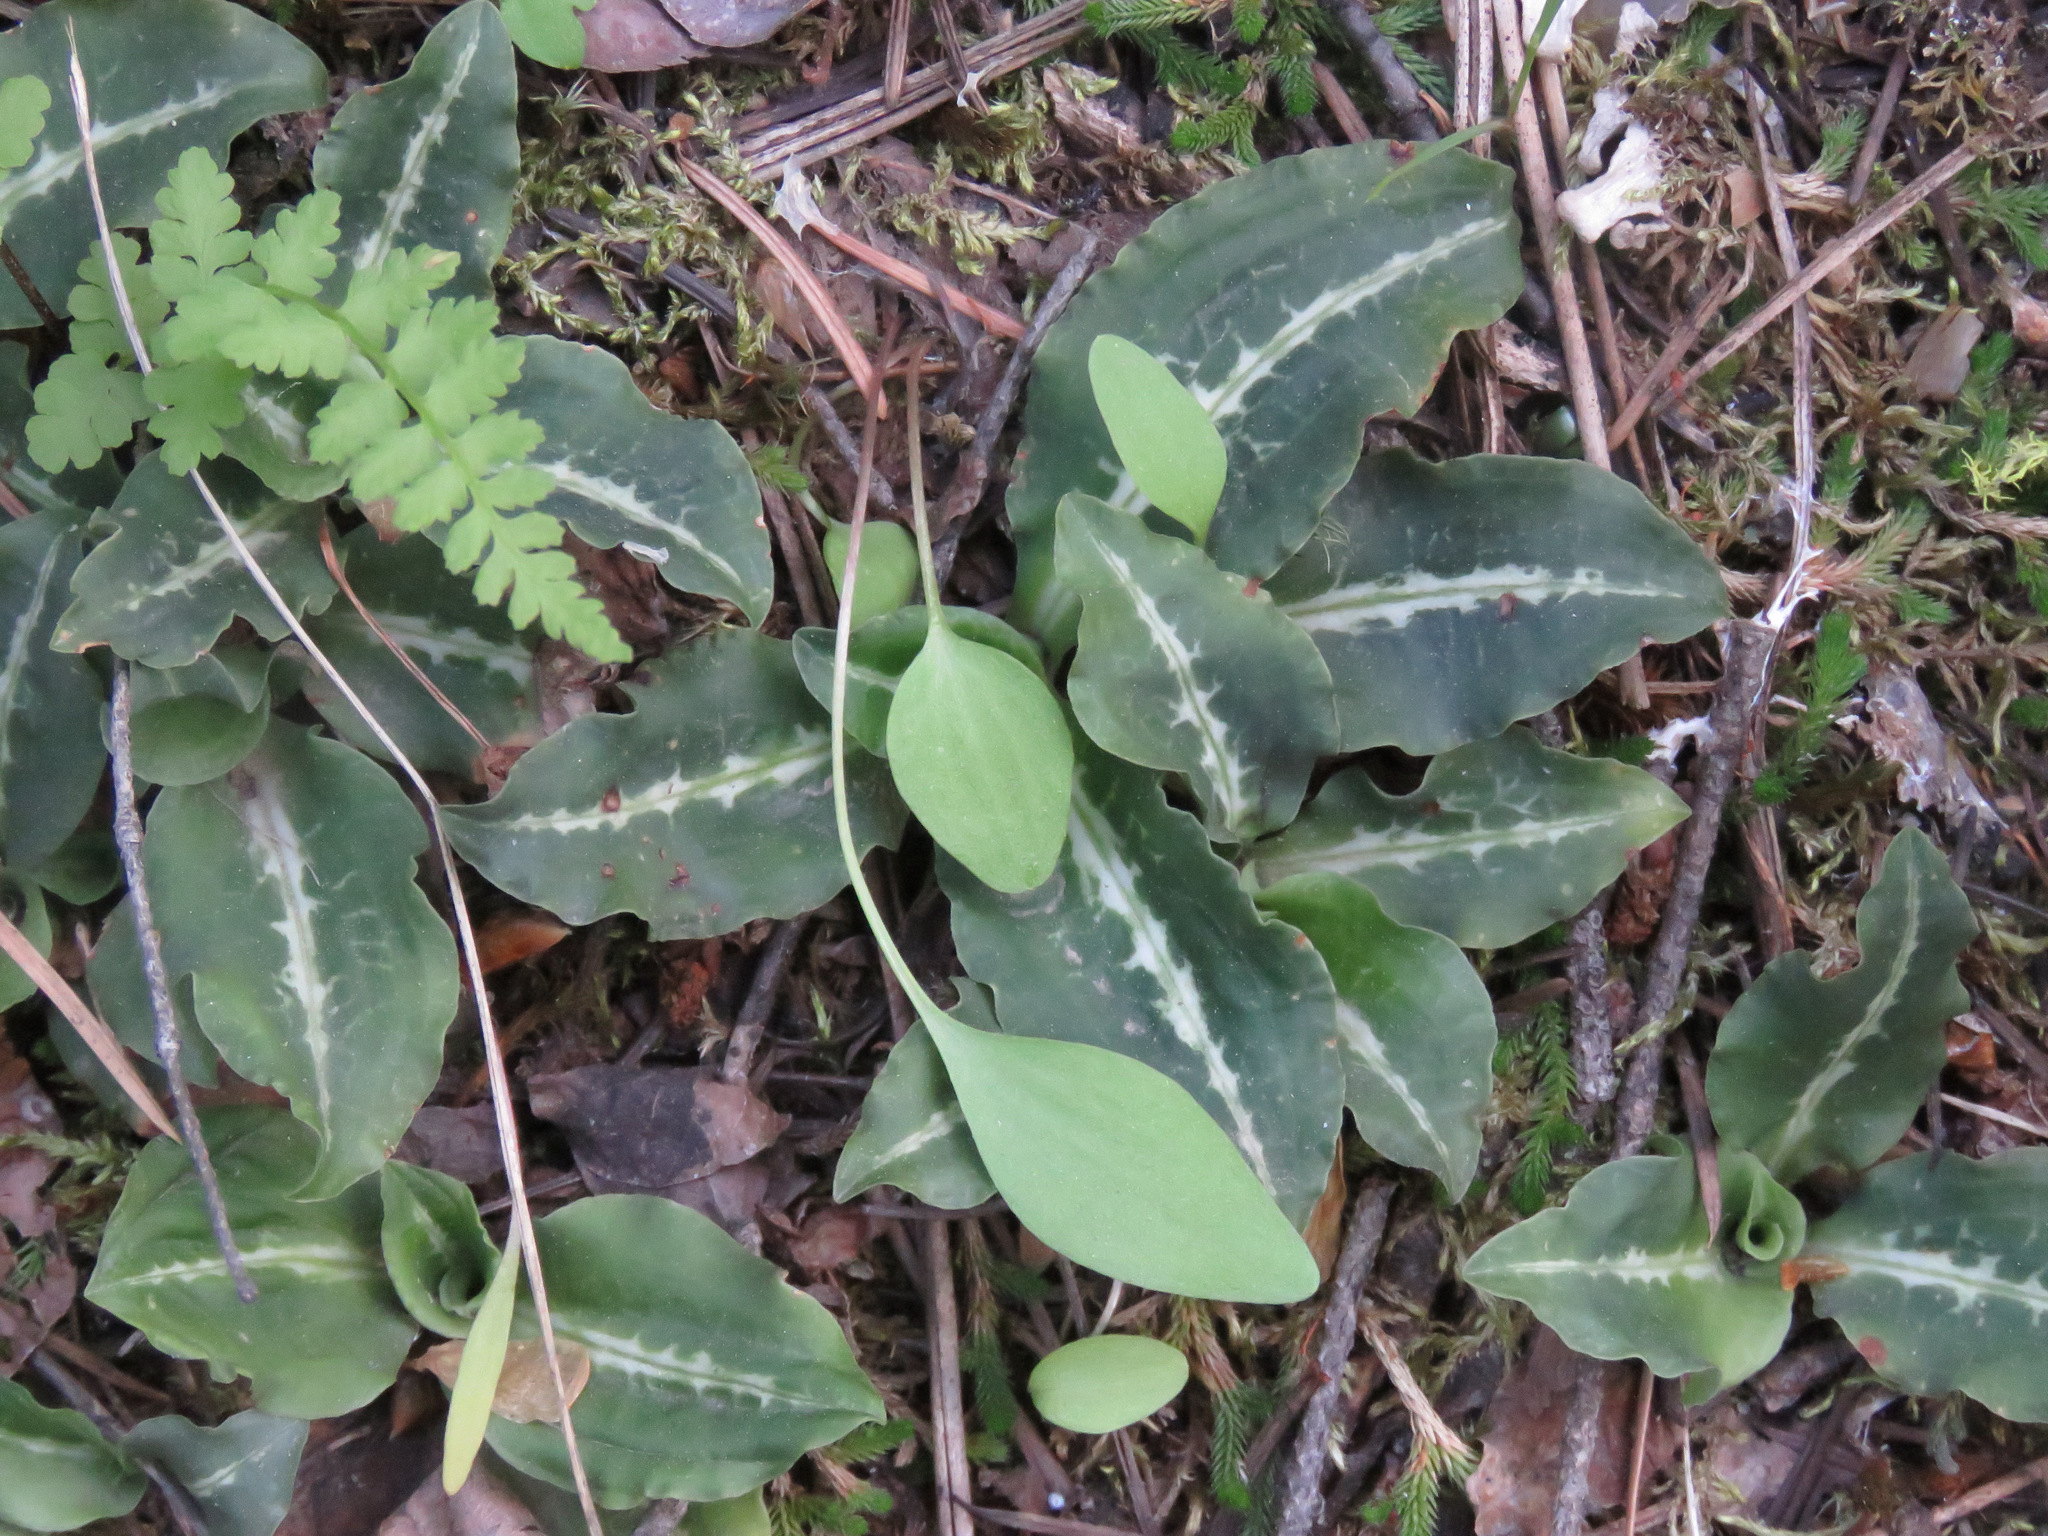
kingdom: Plantae
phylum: Tracheophyta
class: Liliopsida
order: Asparagales
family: Orchidaceae
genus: Goodyera
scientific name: Goodyera oblongifolia
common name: Giant rattlesnake-plantain
